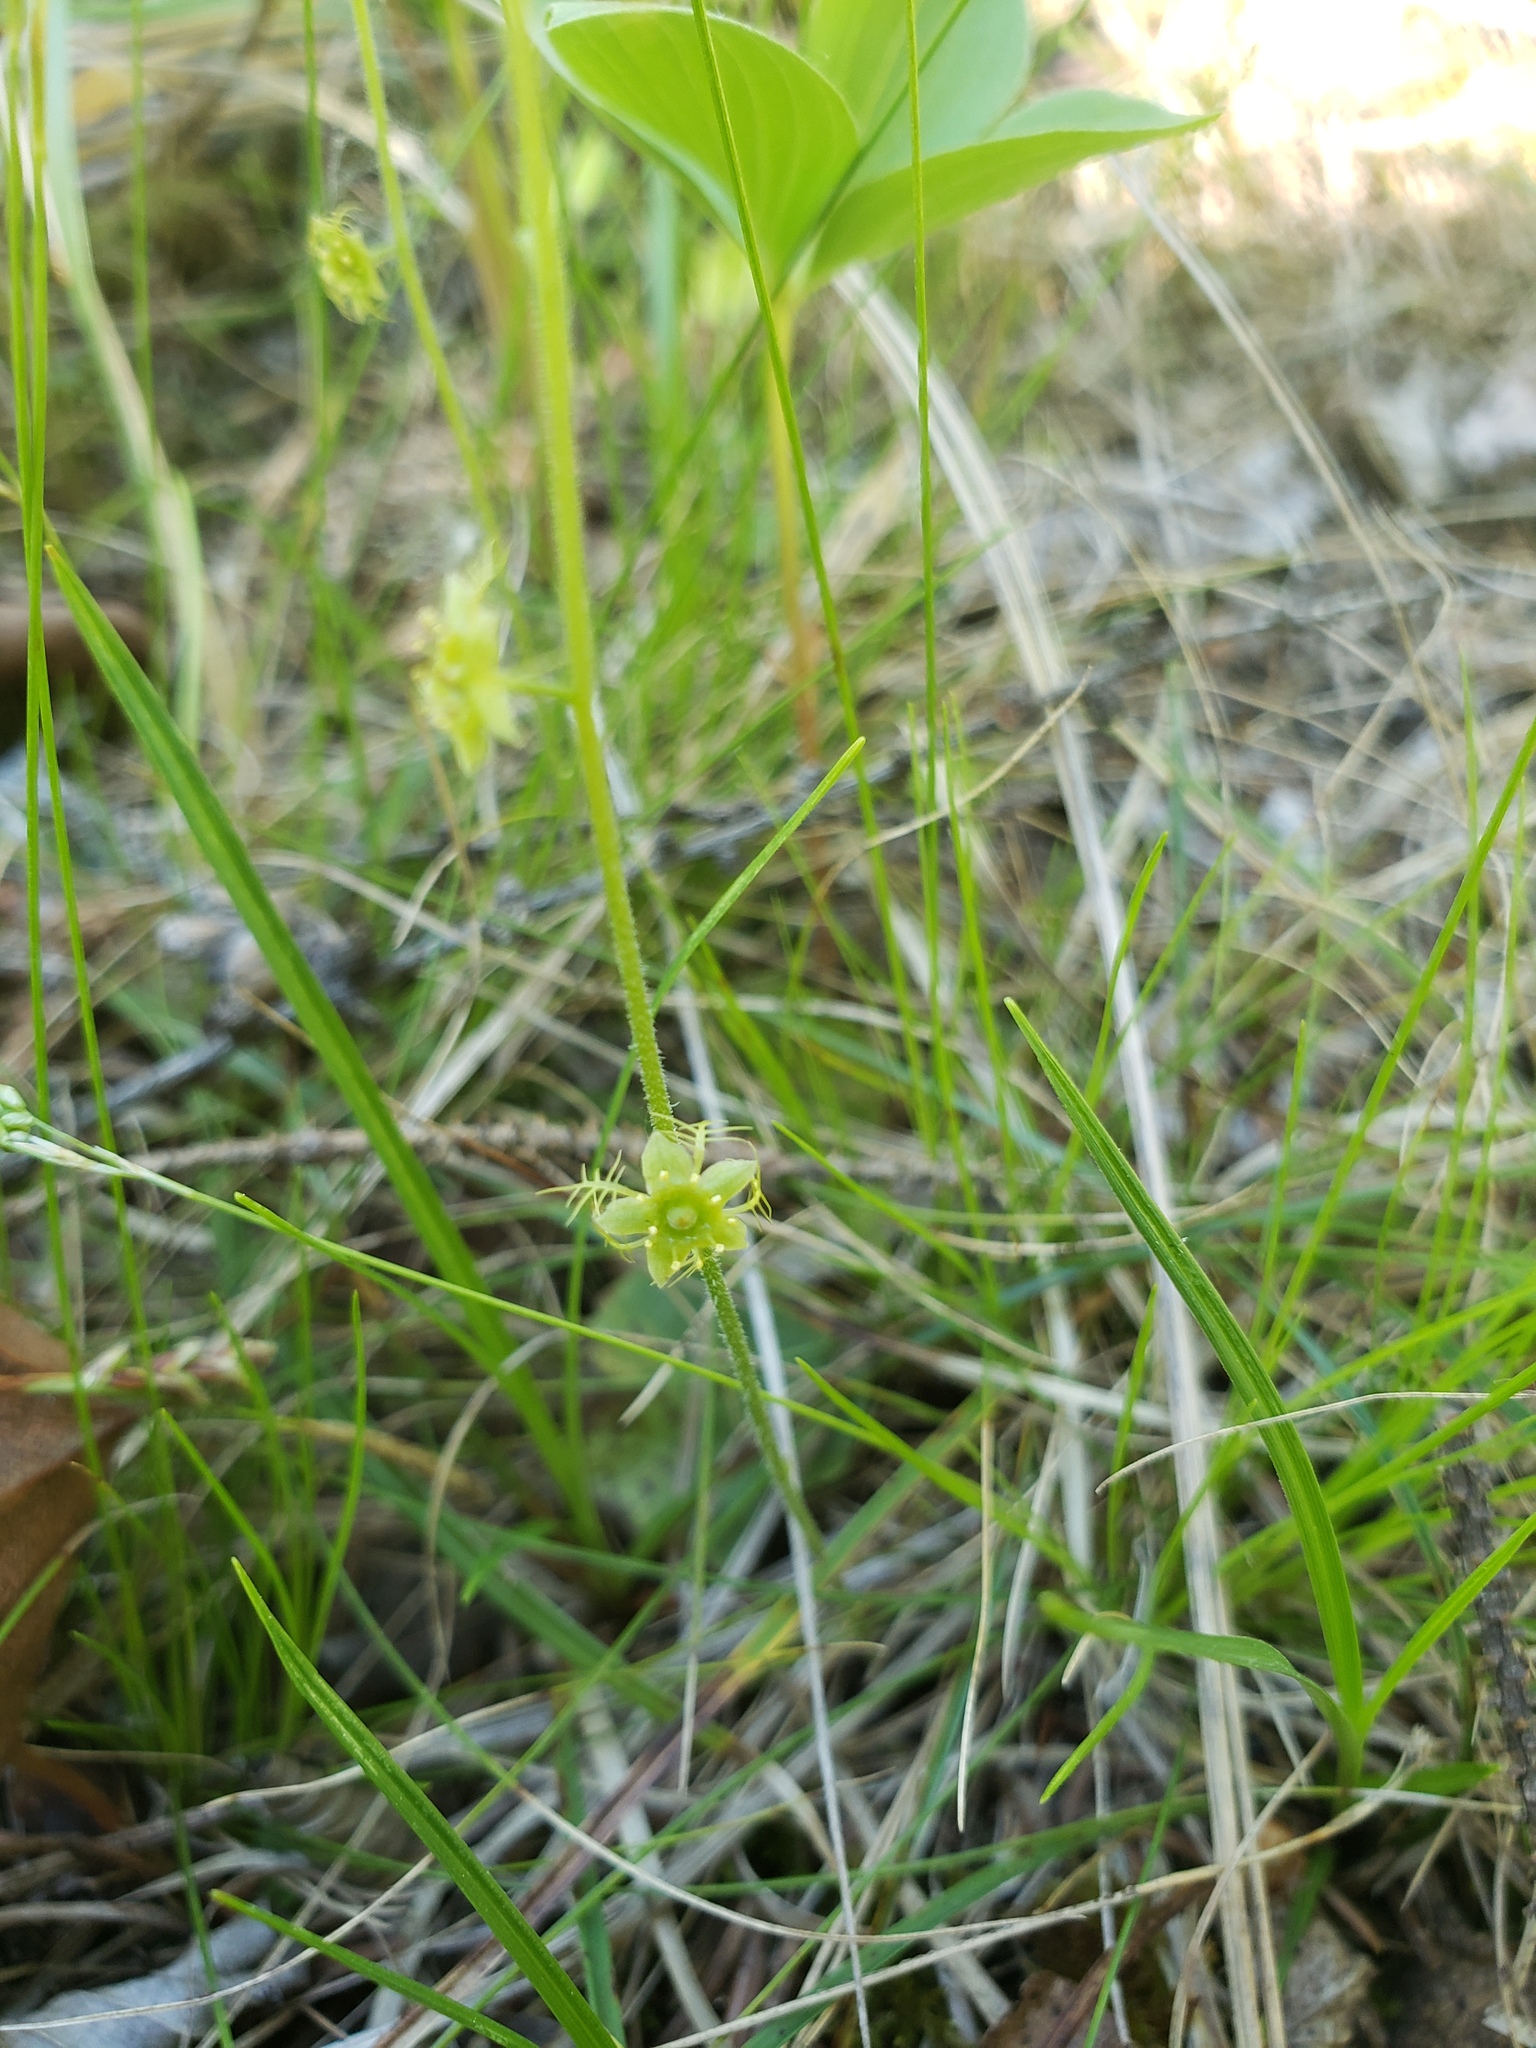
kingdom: Plantae
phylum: Tracheophyta
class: Magnoliopsida
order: Saxifragales
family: Saxifragaceae
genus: Mitella
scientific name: Mitella nuda
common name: Bare-stemmed bishop's-cap
